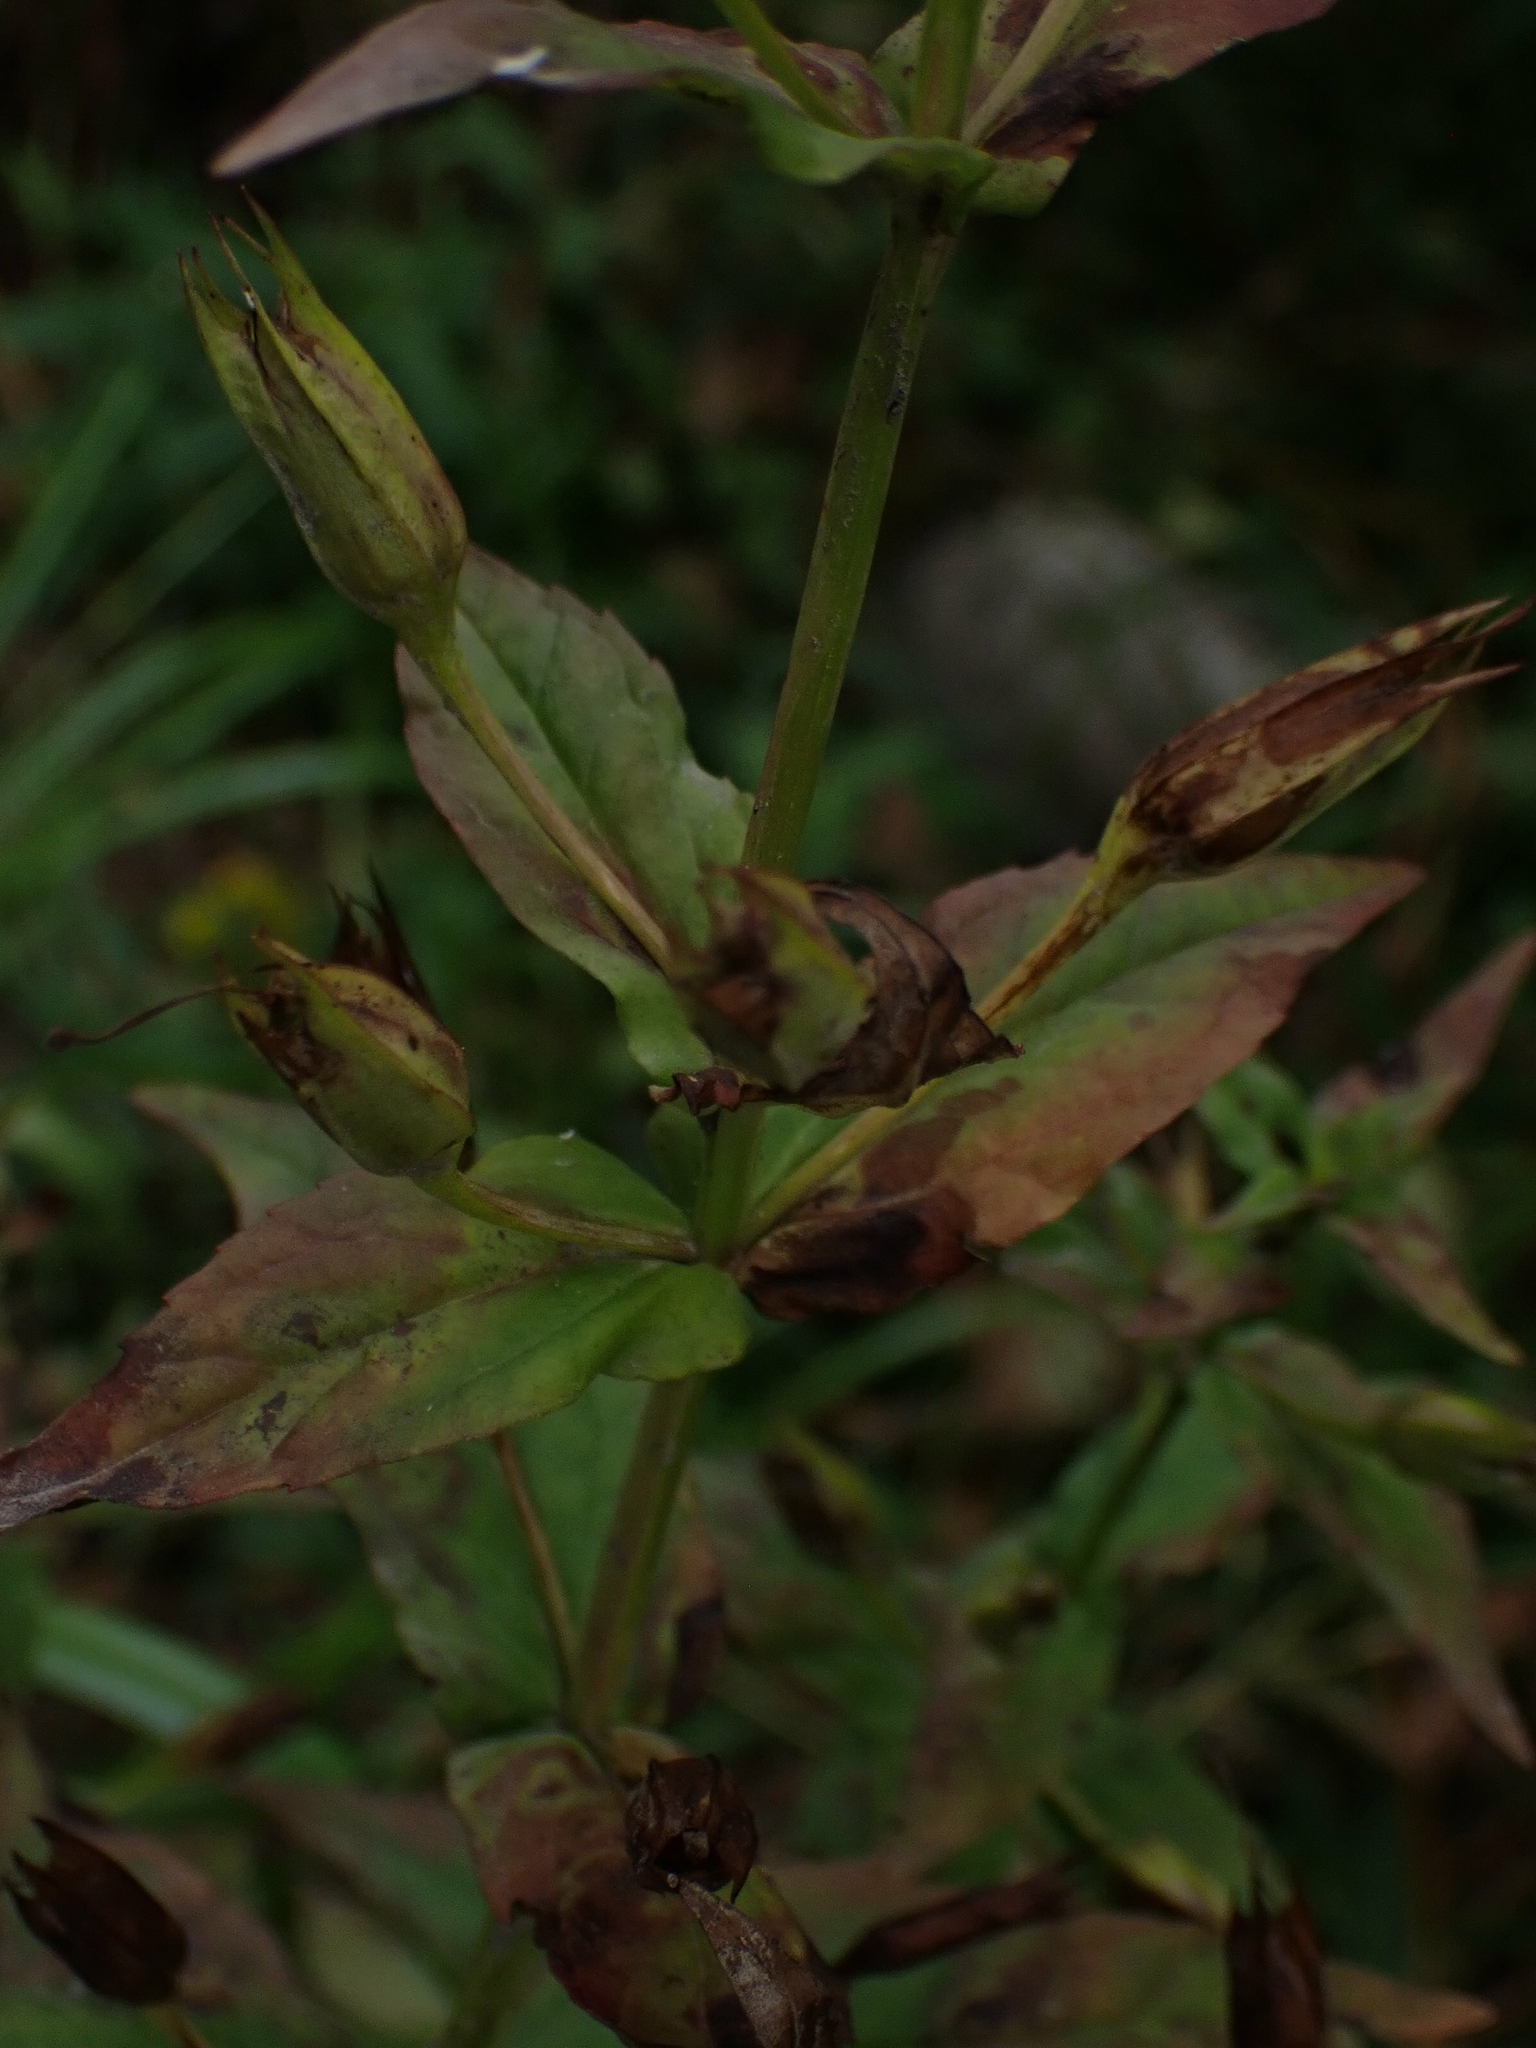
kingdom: Plantae
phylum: Tracheophyta
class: Magnoliopsida
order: Lamiales
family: Phrymaceae
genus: Mimulus
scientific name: Mimulus ringens
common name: Allegheny monkeyflower
